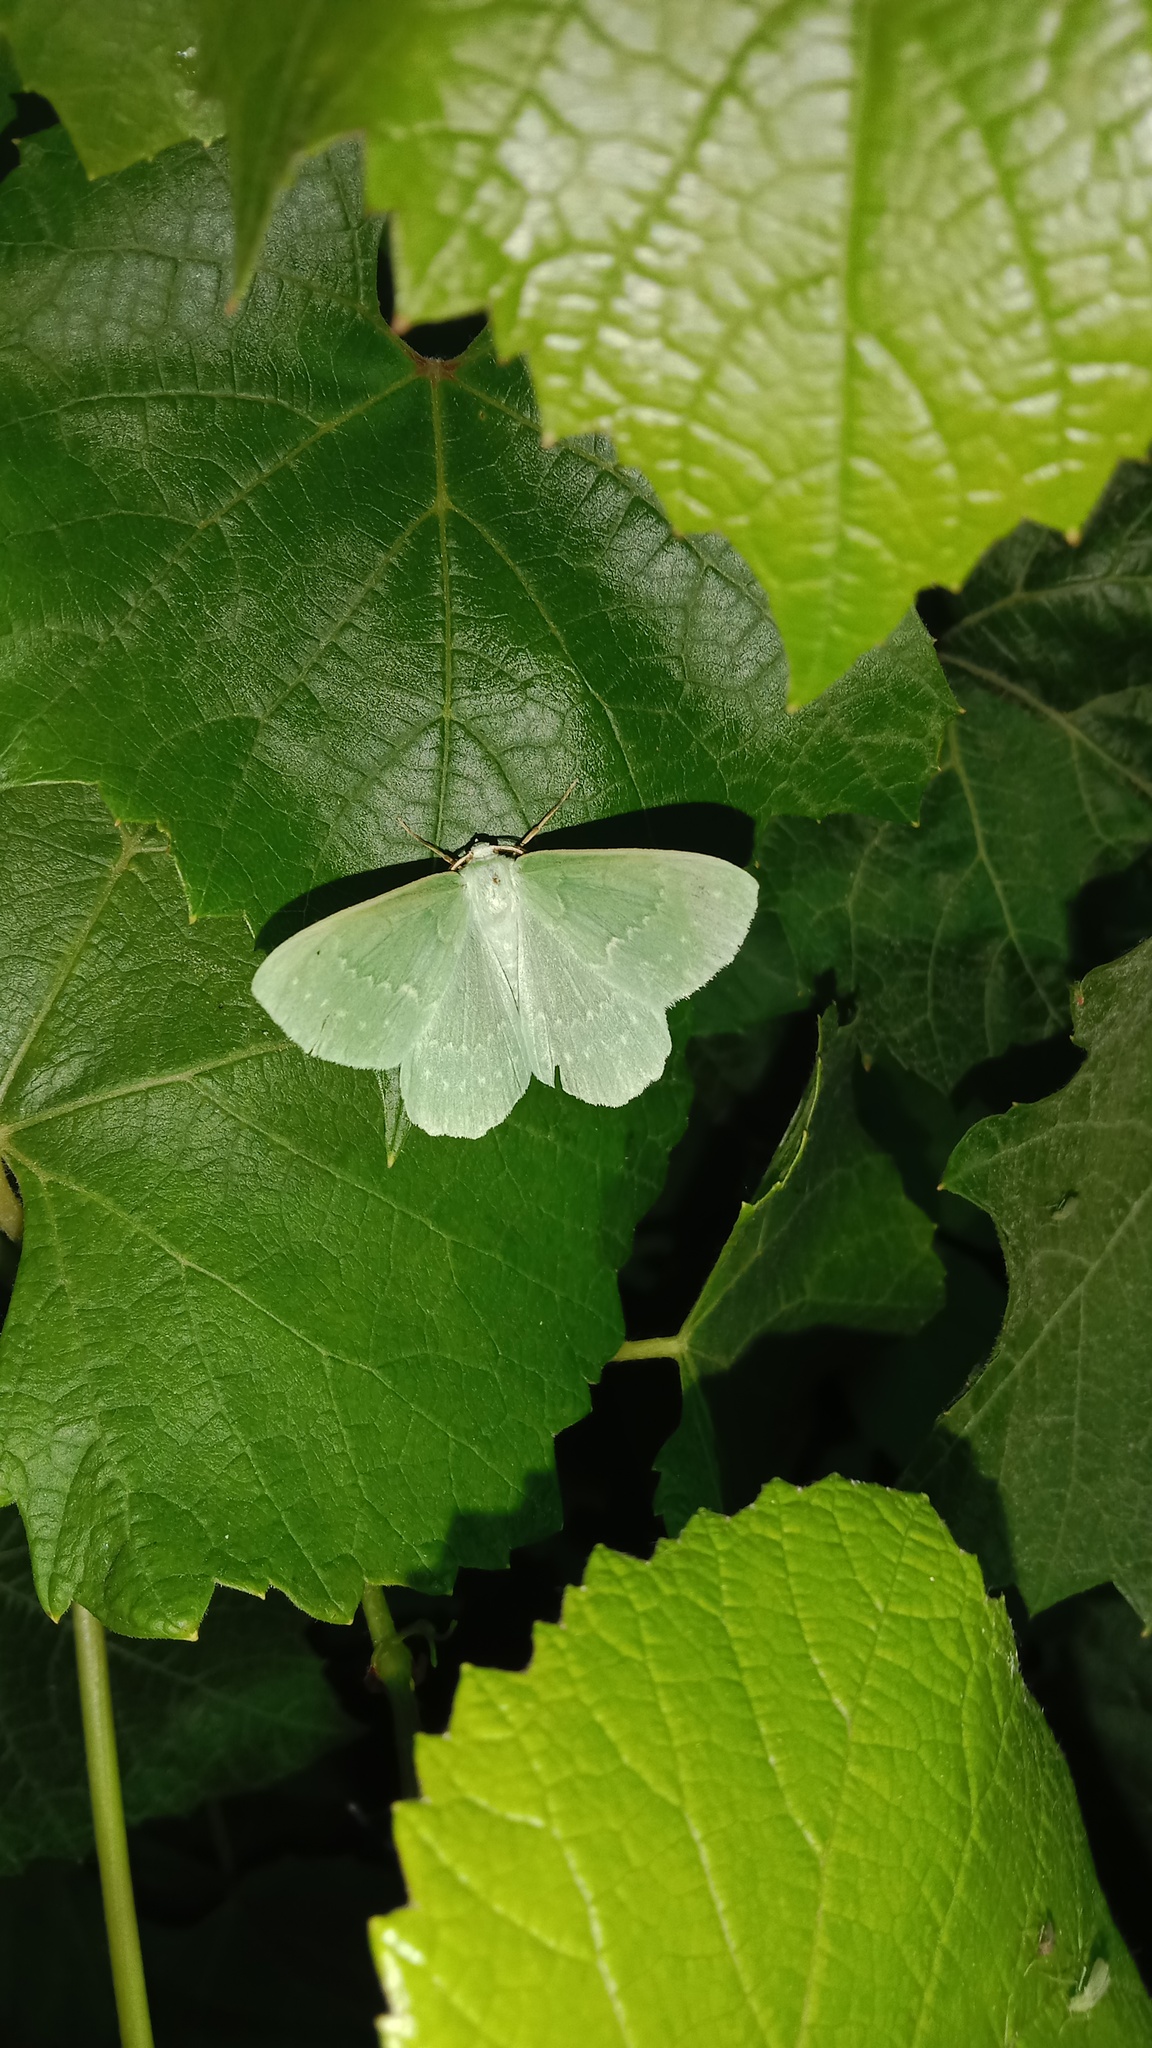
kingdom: Animalia
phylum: Arthropoda
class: Insecta
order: Lepidoptera
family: Geometridae
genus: Geometra
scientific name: Geometra papilionaria
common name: Large emerald
